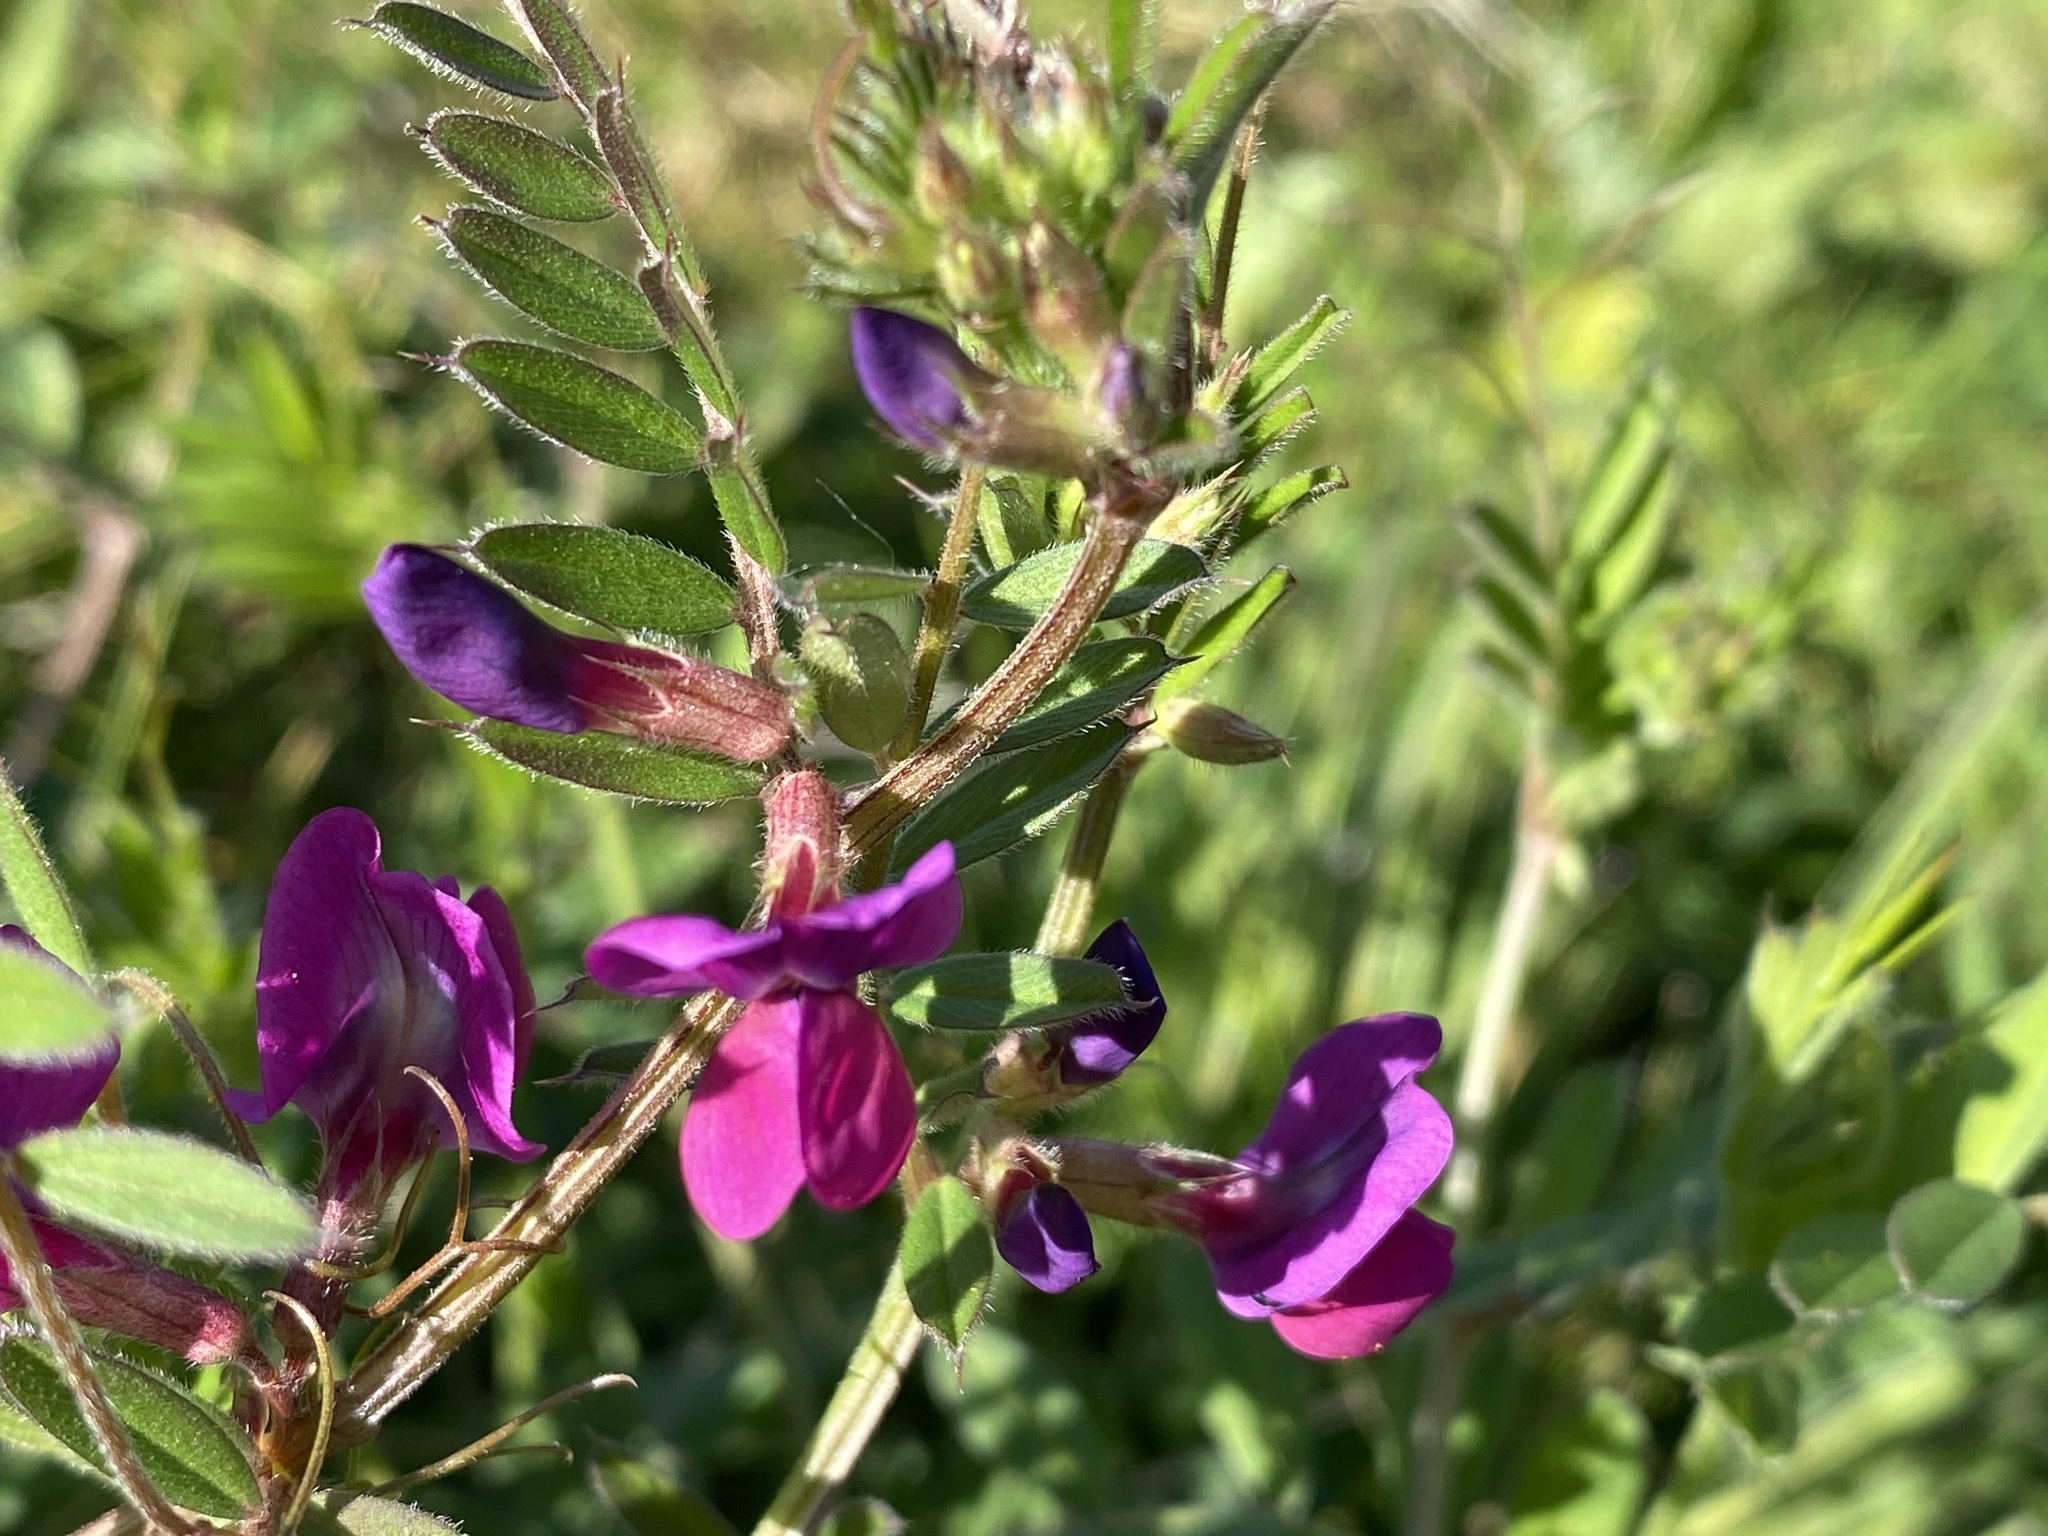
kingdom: Plantae
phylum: Tracheophyta
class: Magnoliopsida
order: Fabales
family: Fabaceae
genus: Vicia
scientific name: Vicia sativa
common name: Garden vetch
